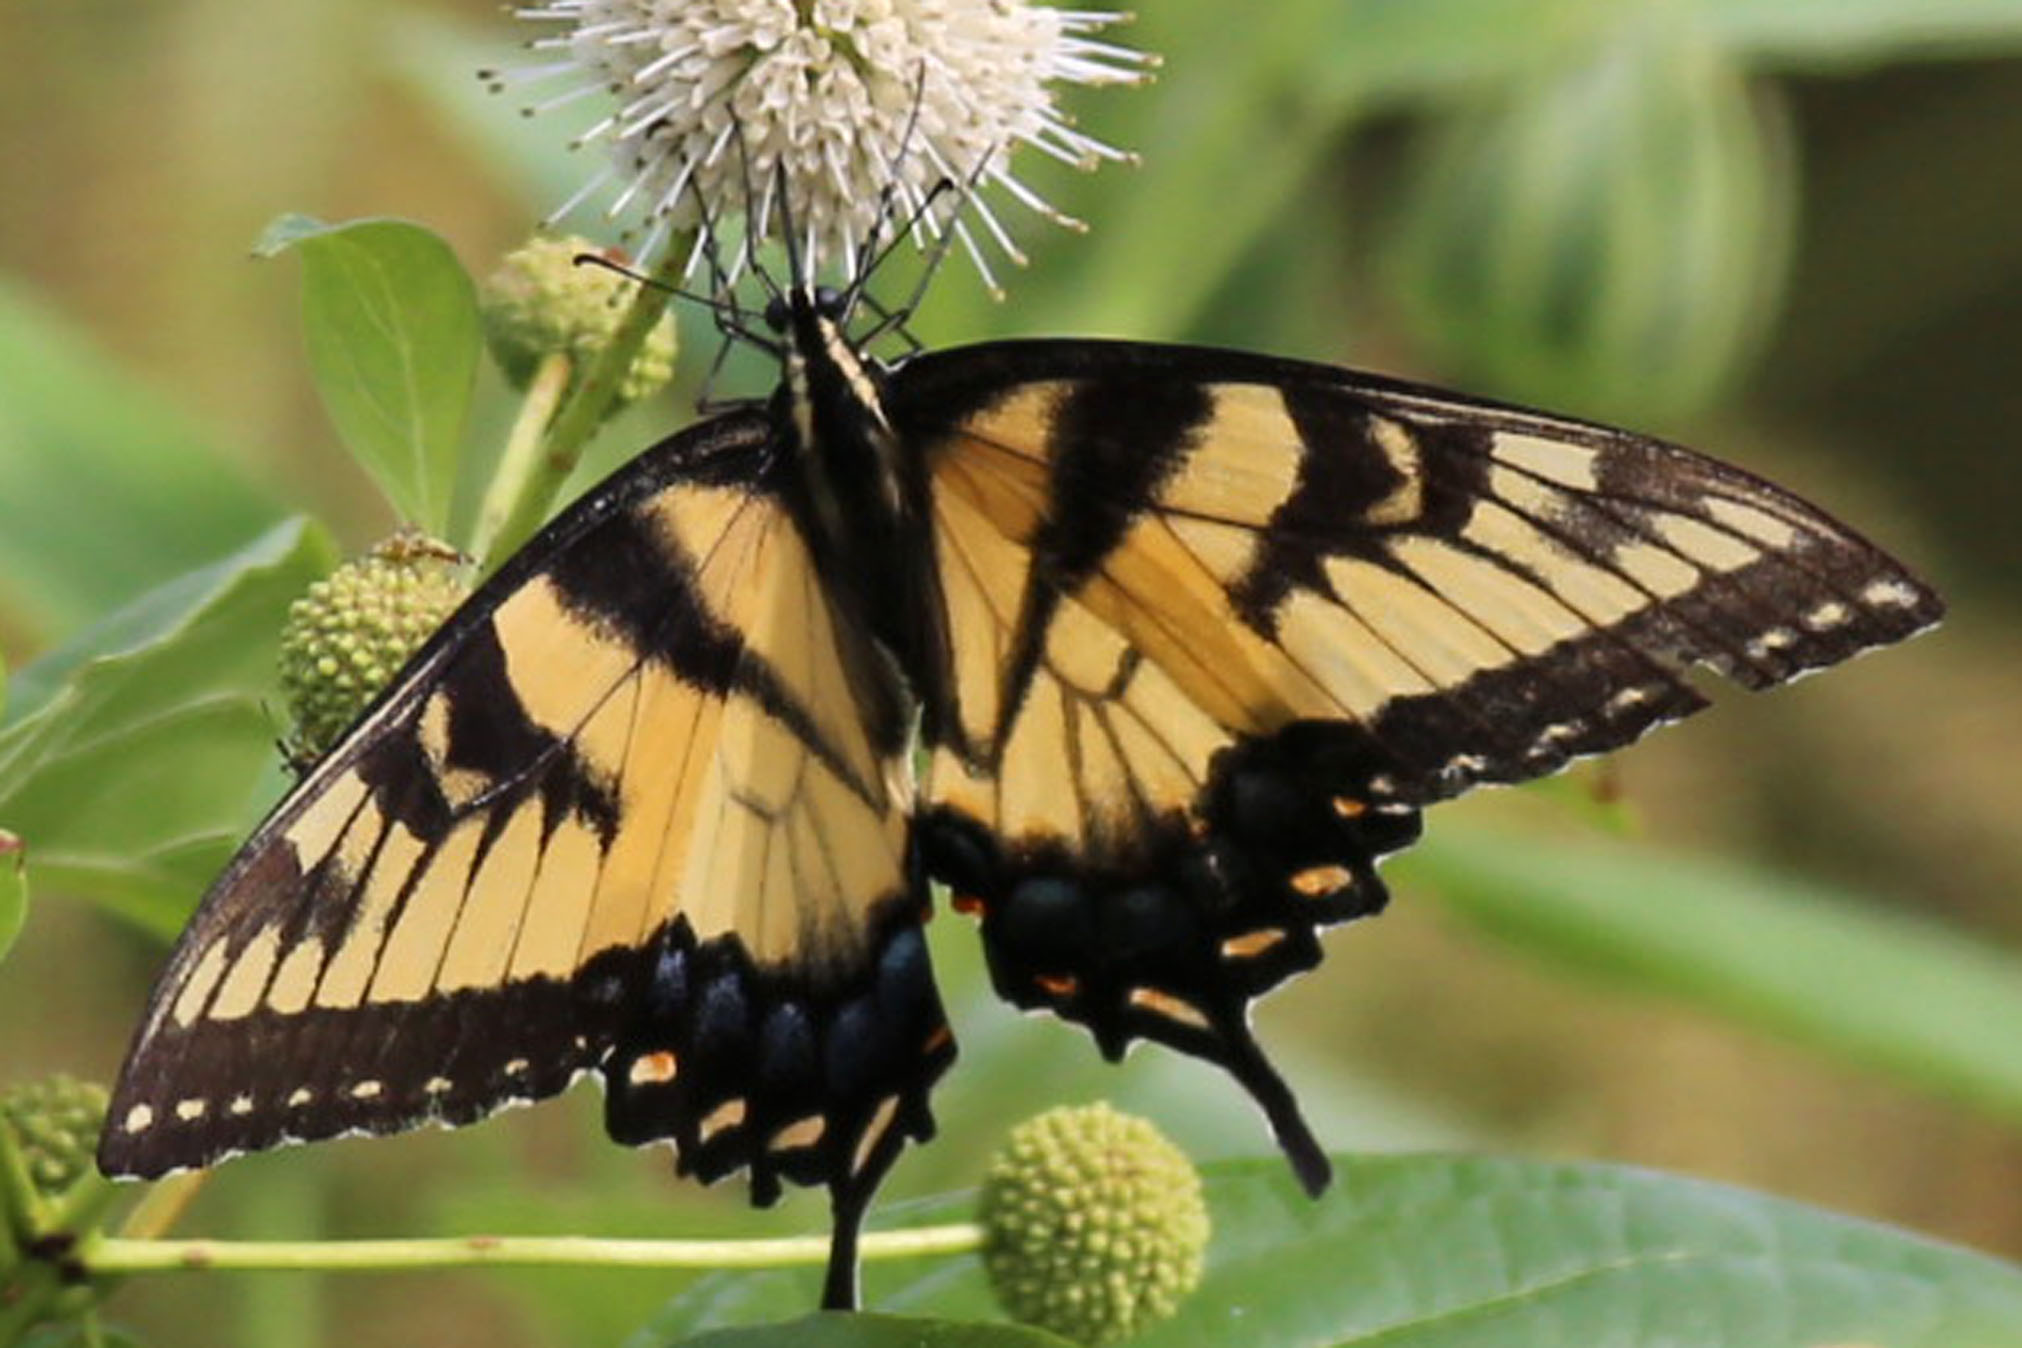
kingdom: Animalia
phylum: Arthropoda
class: Insecta
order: Lepidoptera
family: Papilionidae
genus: Papilio
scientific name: Papilio glaucus
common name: Tiger swallowtail
